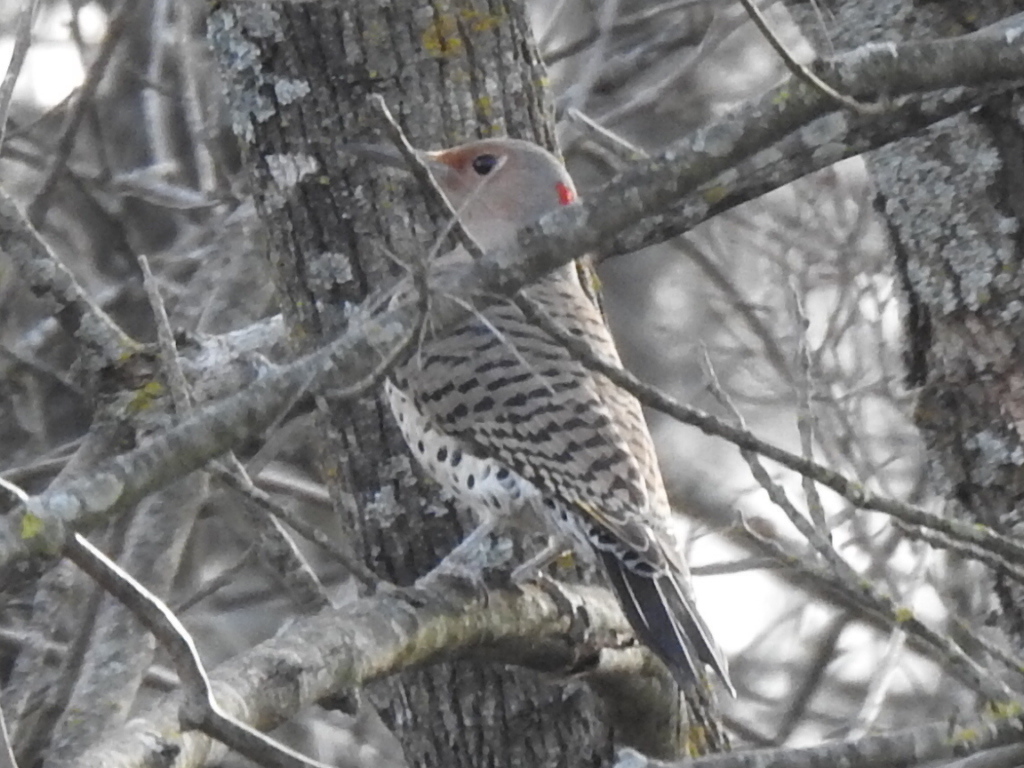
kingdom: Animalia
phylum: Chordata
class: Aves
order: Piciformes
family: Picidae
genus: Colaptes
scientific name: Colaptes auratus
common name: Northern flicker
